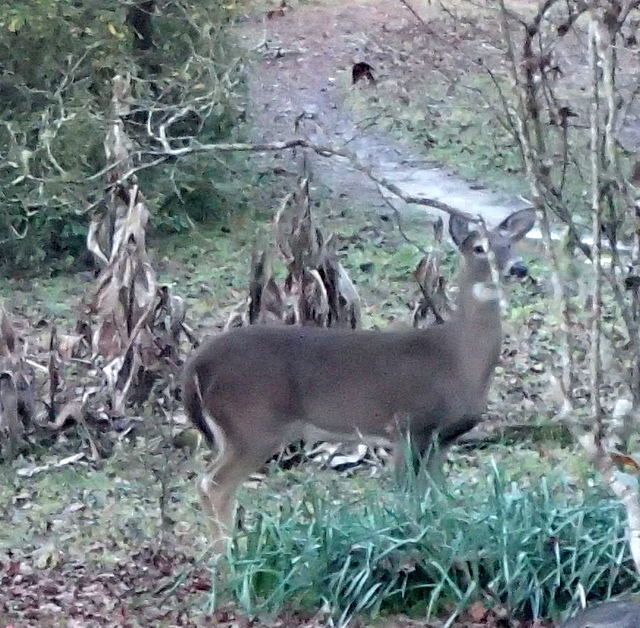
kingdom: Animalia
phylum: Chordata
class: Mammalia
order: Artiodactyla
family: Cervidae
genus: Odocoileus
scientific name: Odocoileus virginianus
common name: White-tailed deer
